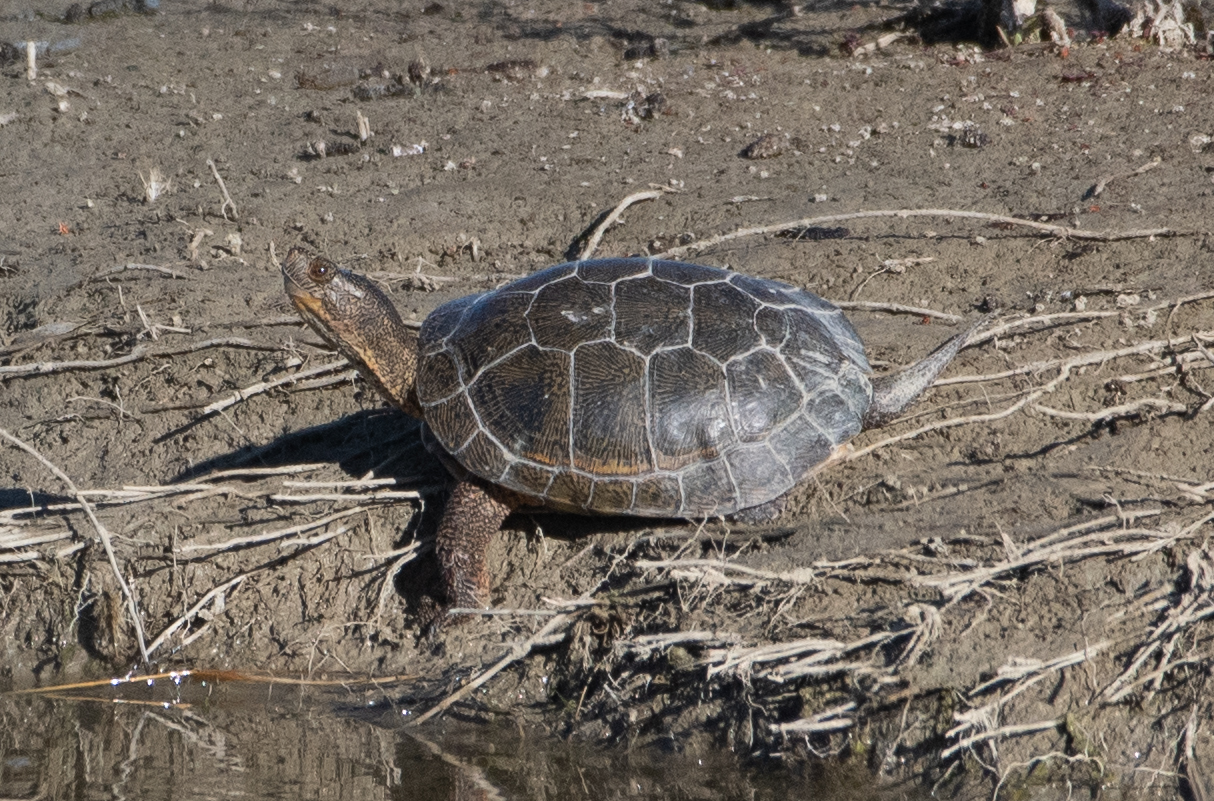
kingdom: Animalia
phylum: Chordata
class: Testudines
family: Emydidae
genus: Actinemys
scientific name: Actinemys marmorata
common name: Western pond turtle
